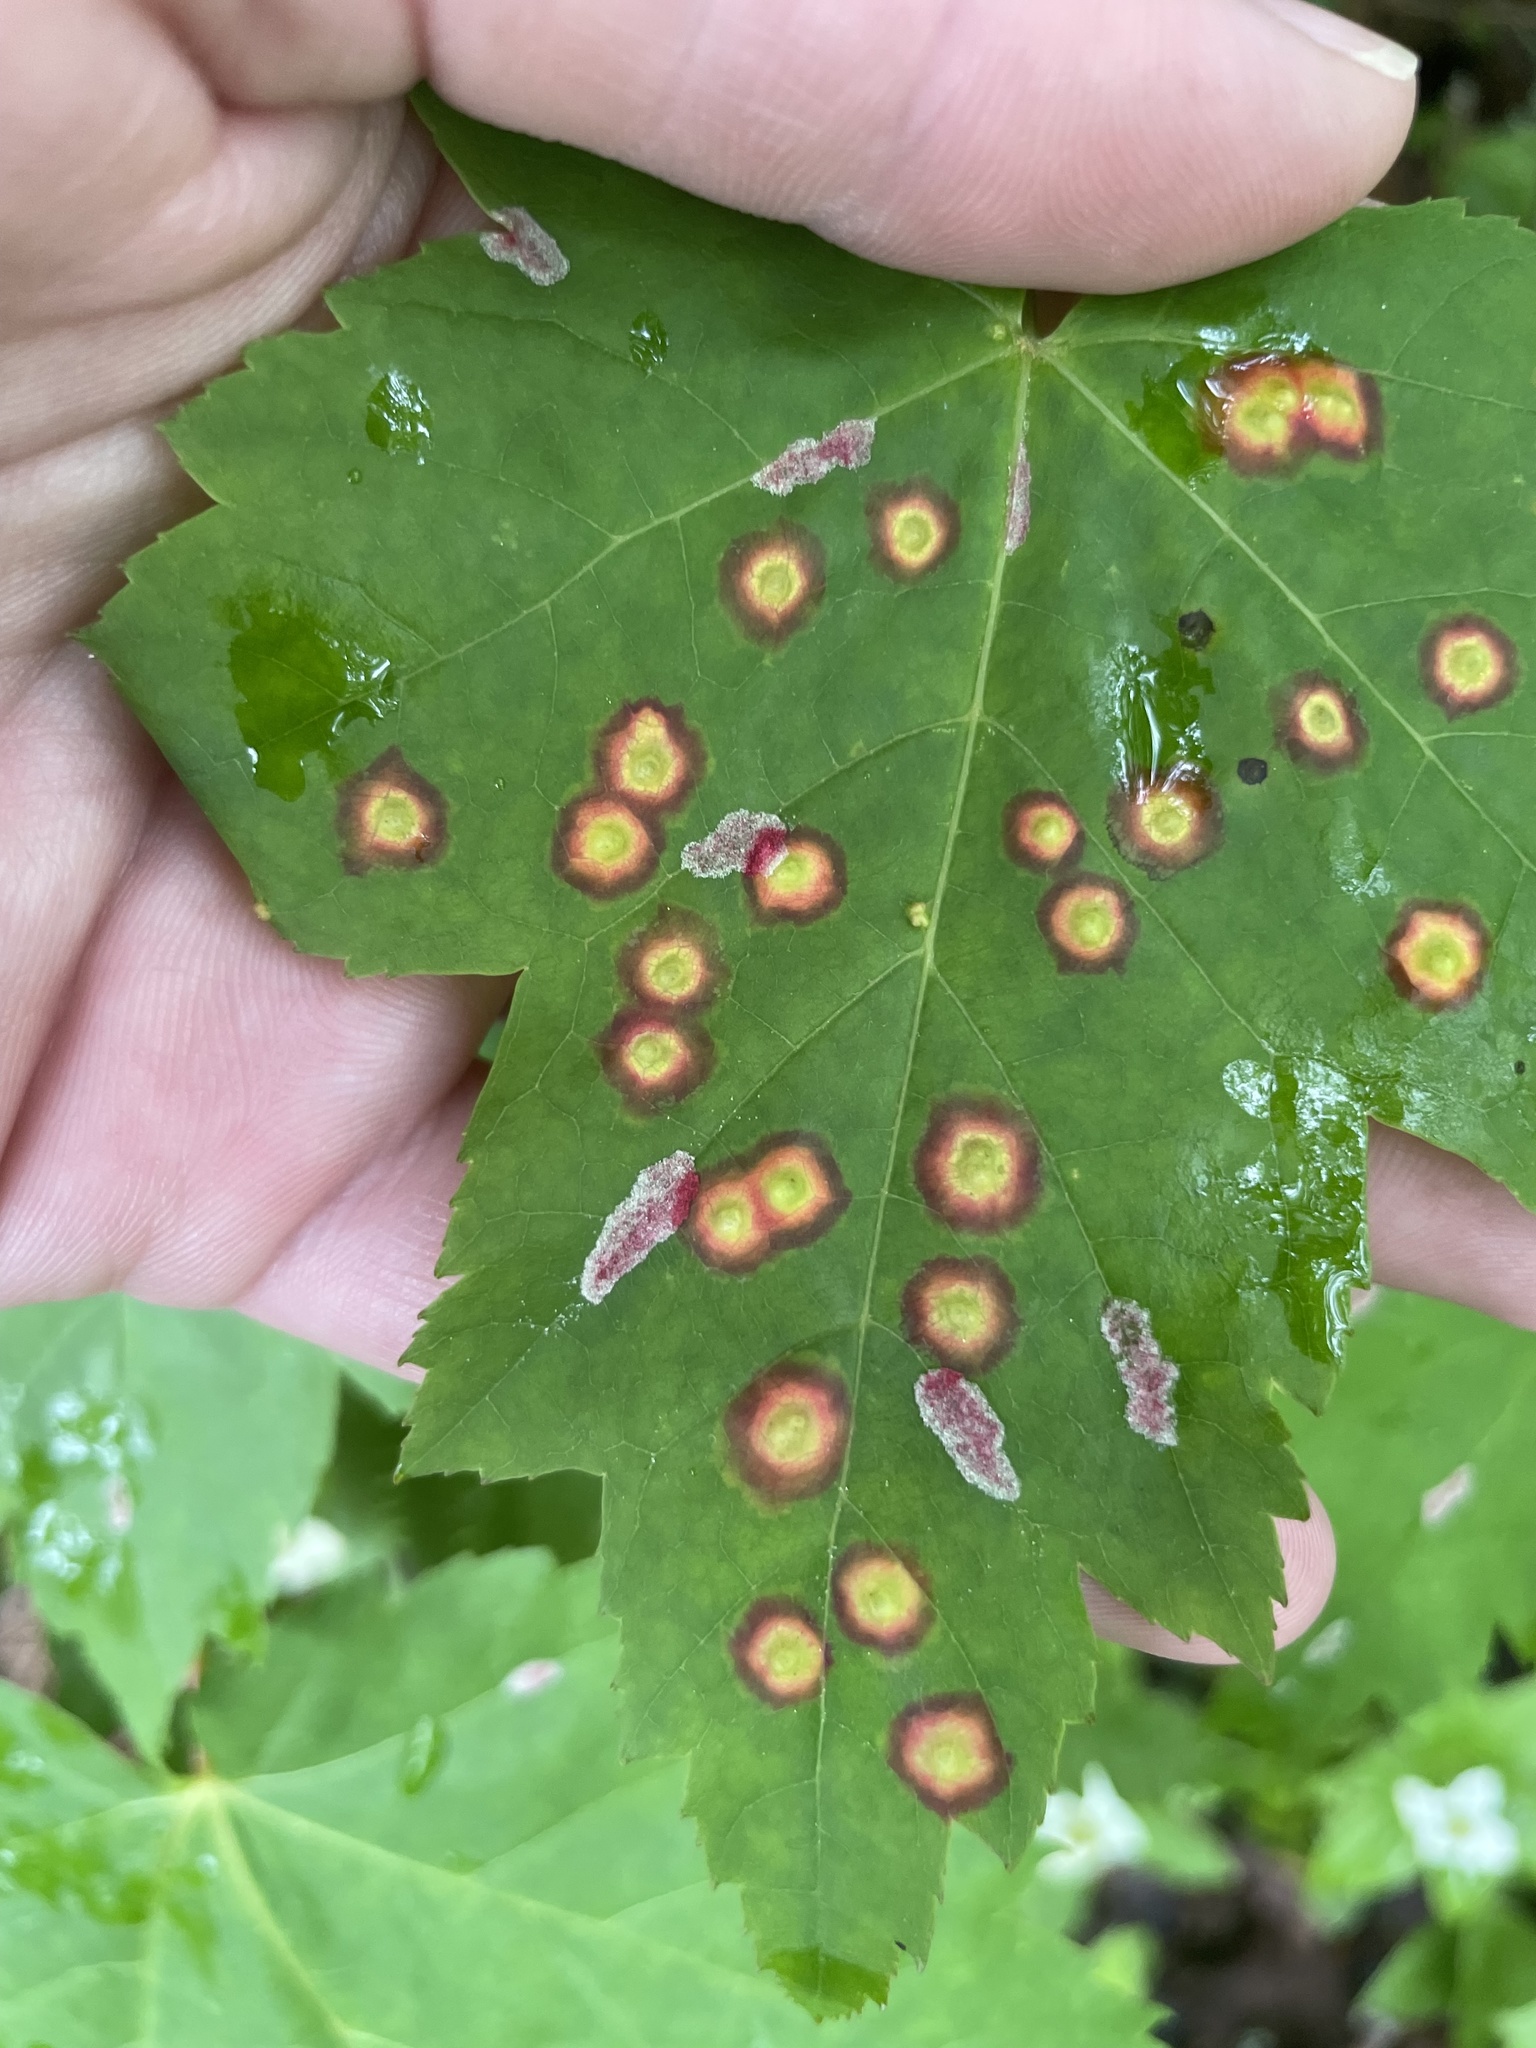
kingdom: Animalia
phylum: Arthropoda
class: Insecta
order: Diptera
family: Cecidomyiidae
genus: Acericecis
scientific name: Acericecis ocellaris
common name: Ocellate gall midge
